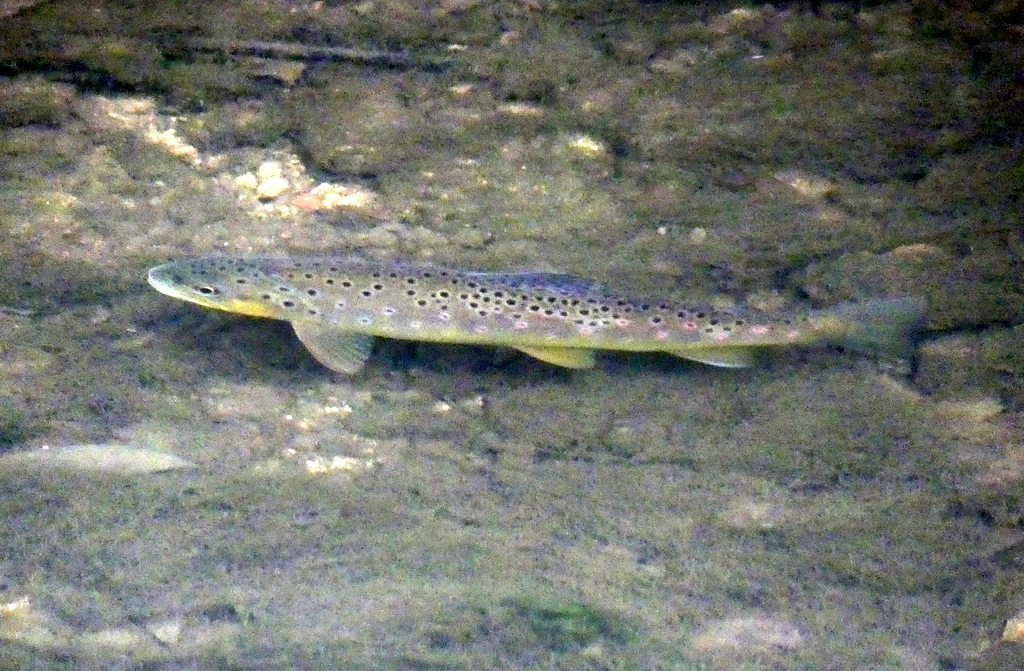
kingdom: Animalia
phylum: Chordata
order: Salmoniformes
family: Salmonidae
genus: Salmo
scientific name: Salmo trutta
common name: Brown trout
